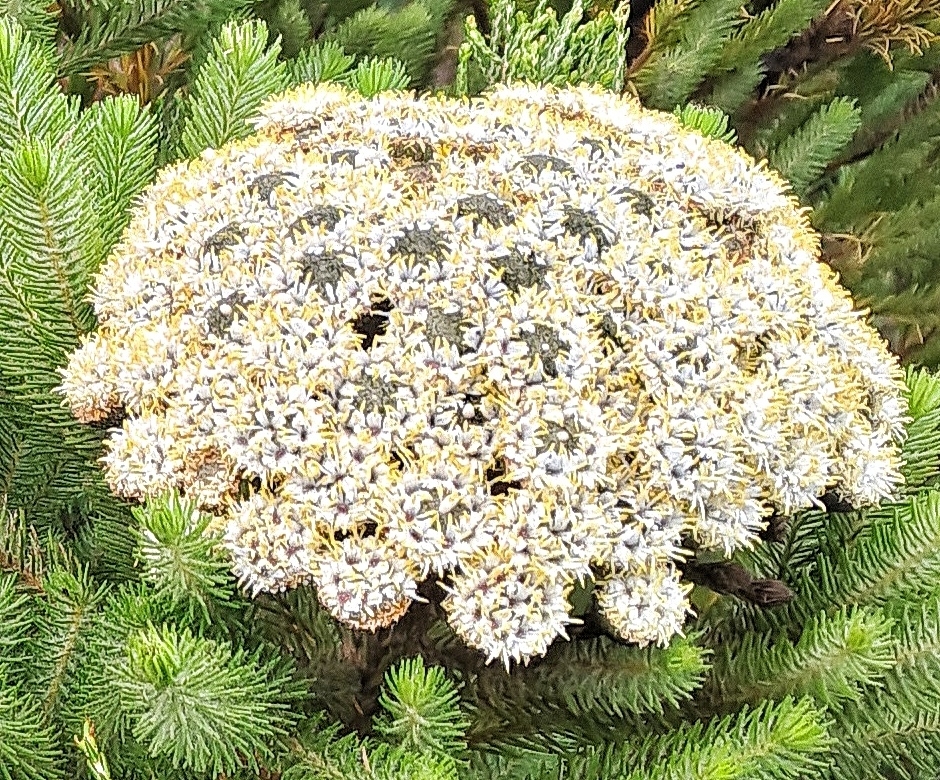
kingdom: Plantae
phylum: Tracheophyta
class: Magnoliopsida
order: Bruniales
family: Bruniaceae
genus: Berzelia
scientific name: Berzelia albiflora
